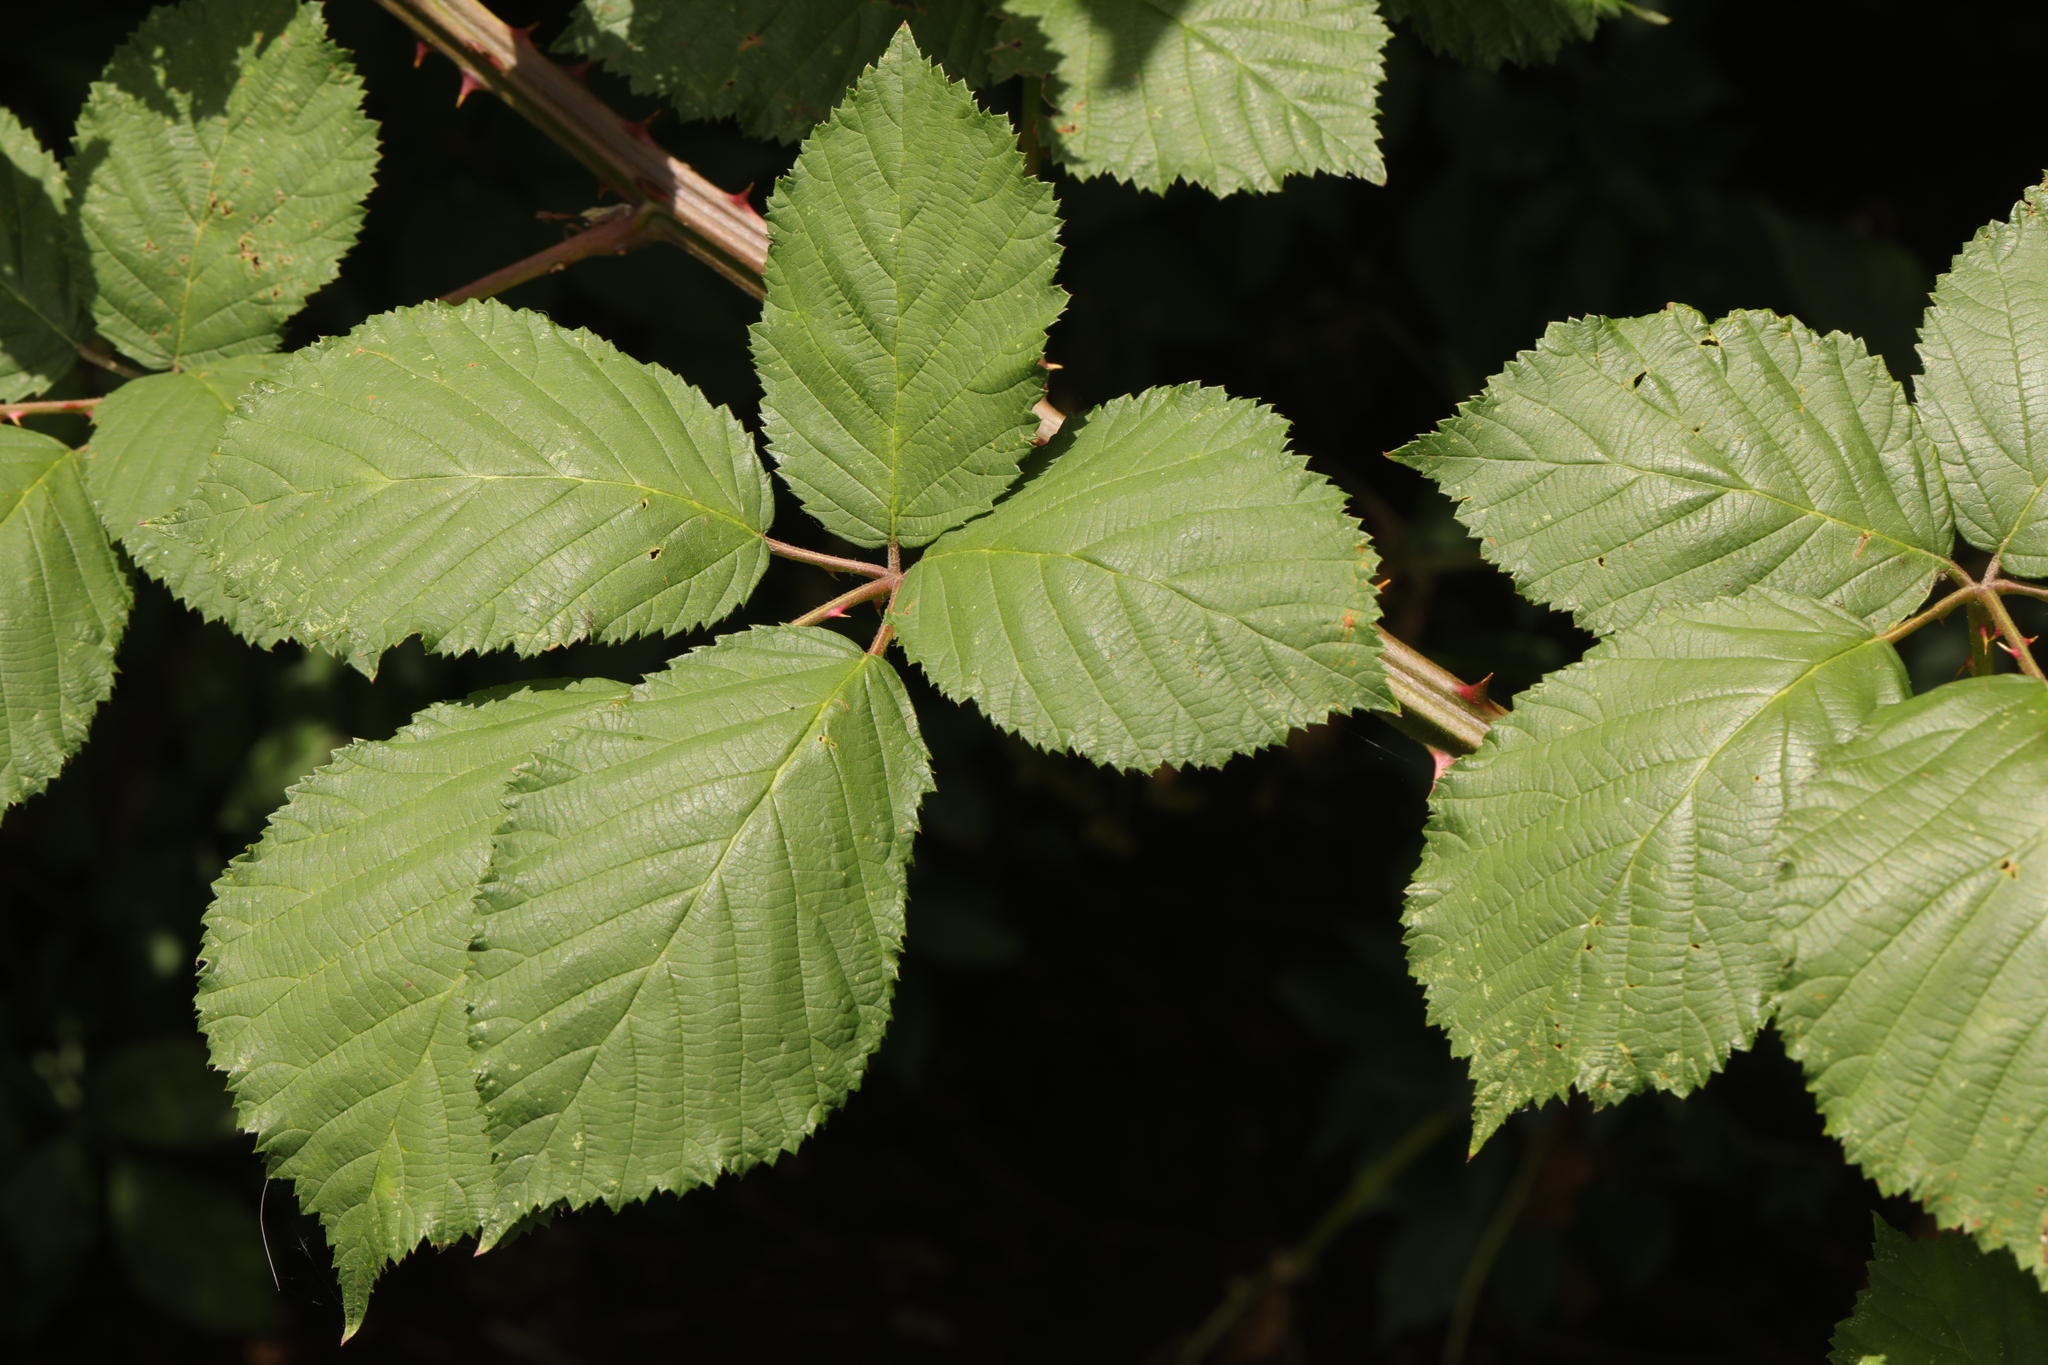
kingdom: Plantae
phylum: Tracheophyta
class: Magnoliopsida
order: Rosales
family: Rosaceae
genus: Rubus
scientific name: Rubus armeniacus
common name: Himalayan blackberry
